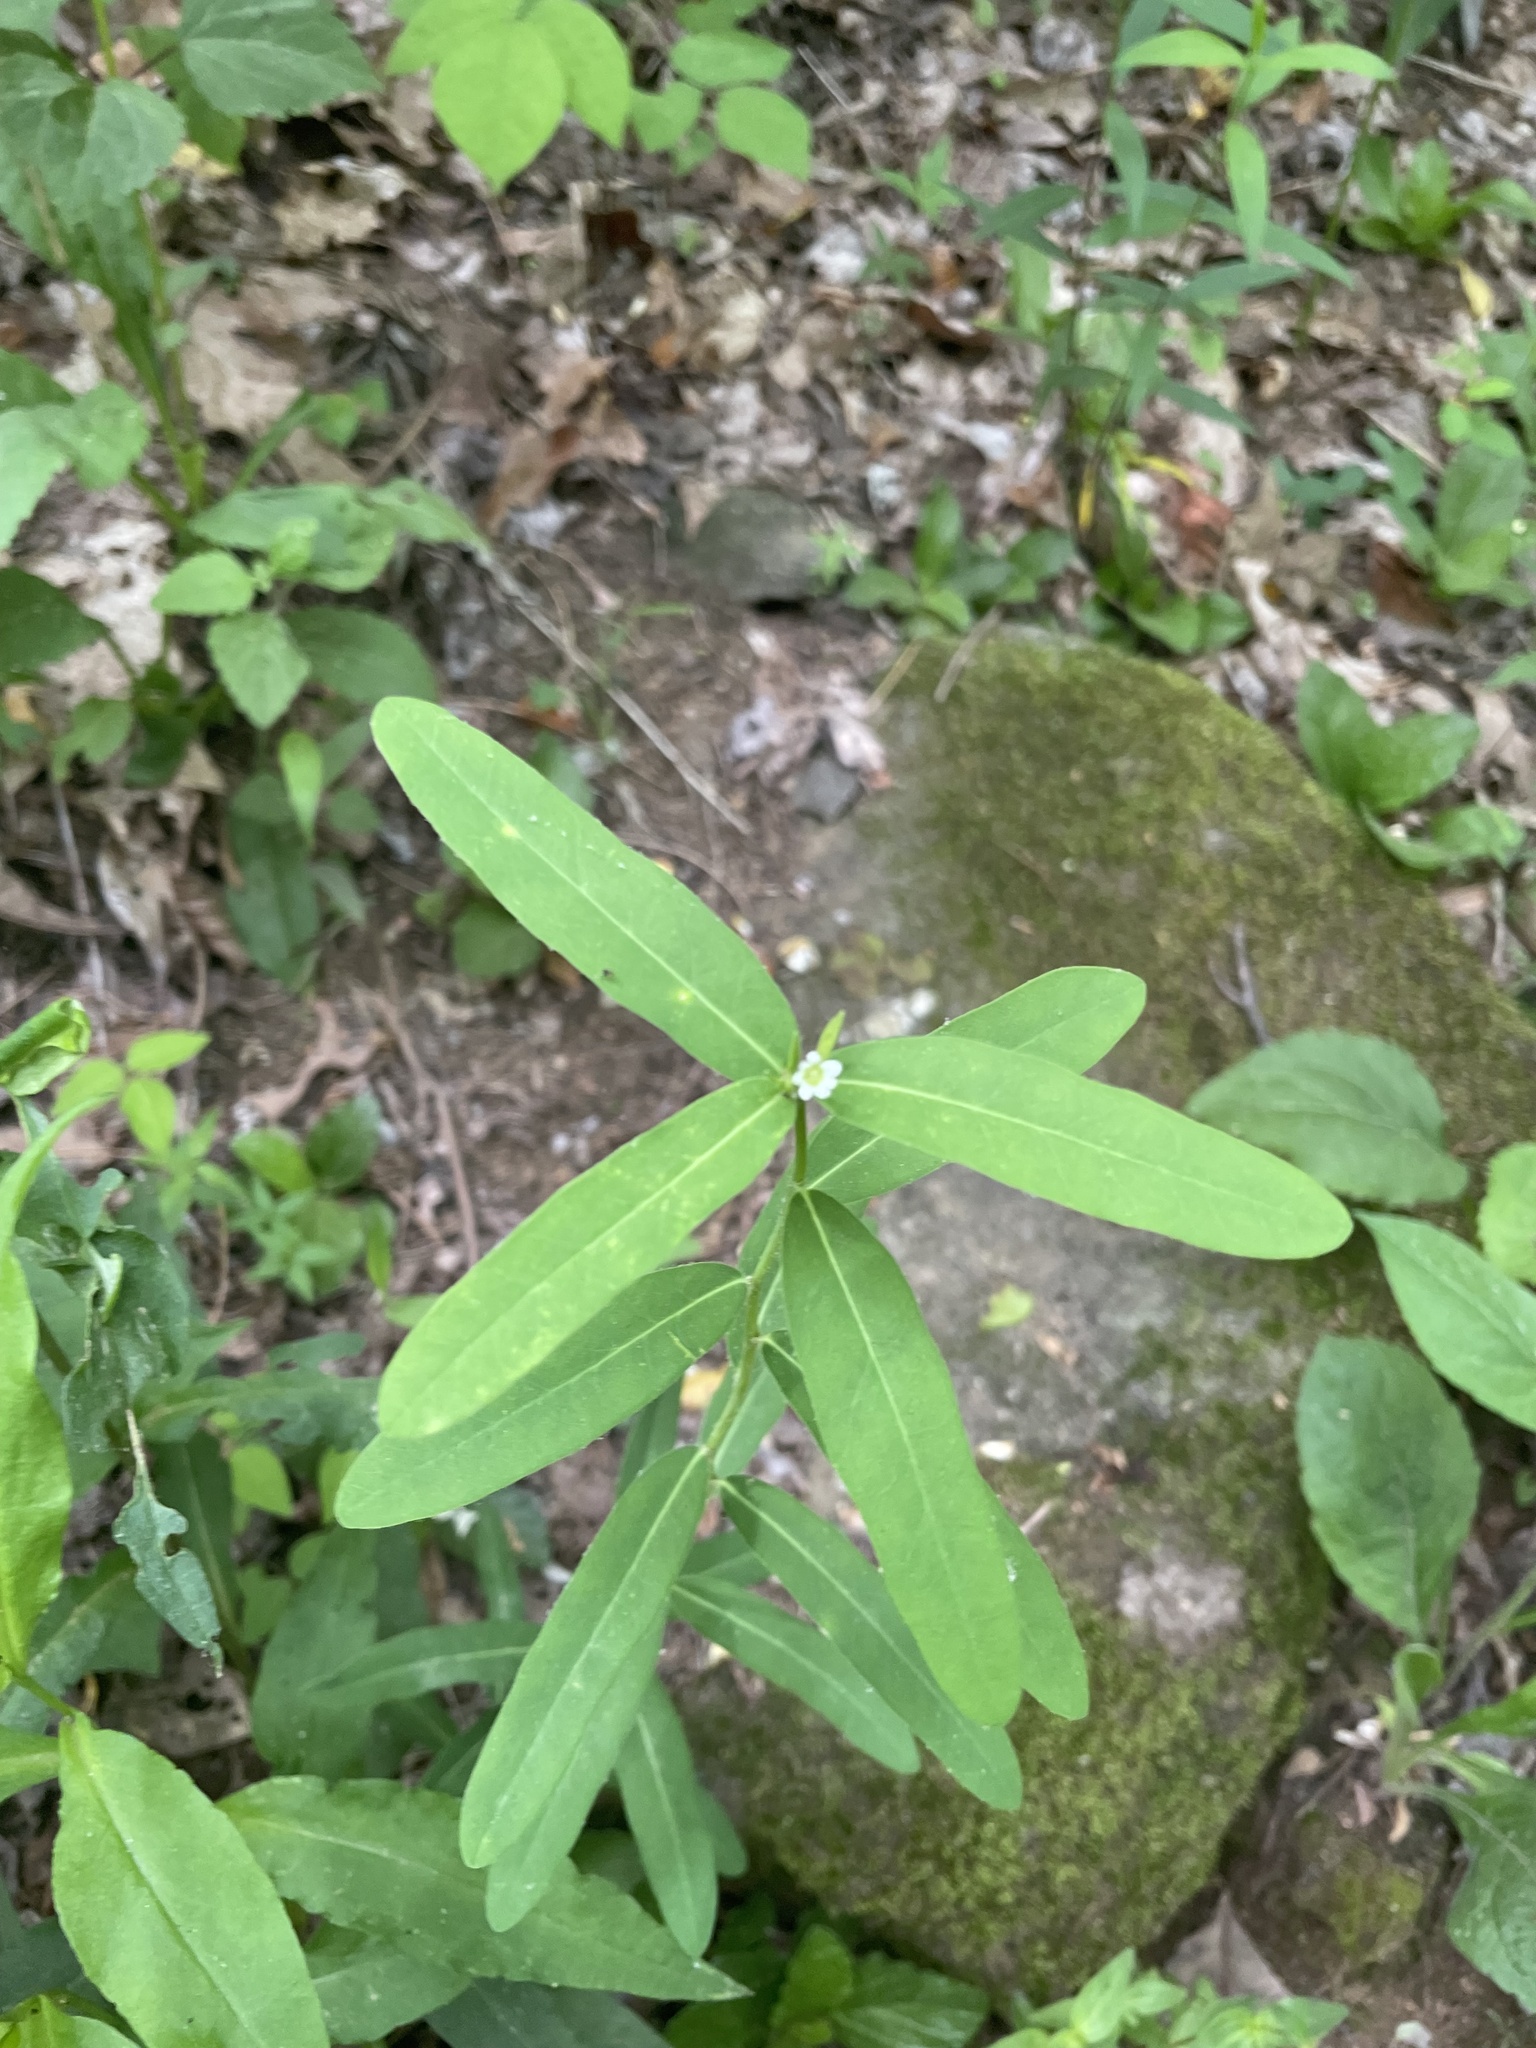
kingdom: Plantae
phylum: Tracheophyta
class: Magnoliopsida
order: Malpighiales
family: Euphorbiaceae
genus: Euphorbia
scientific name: Euphorbia pubentissima
